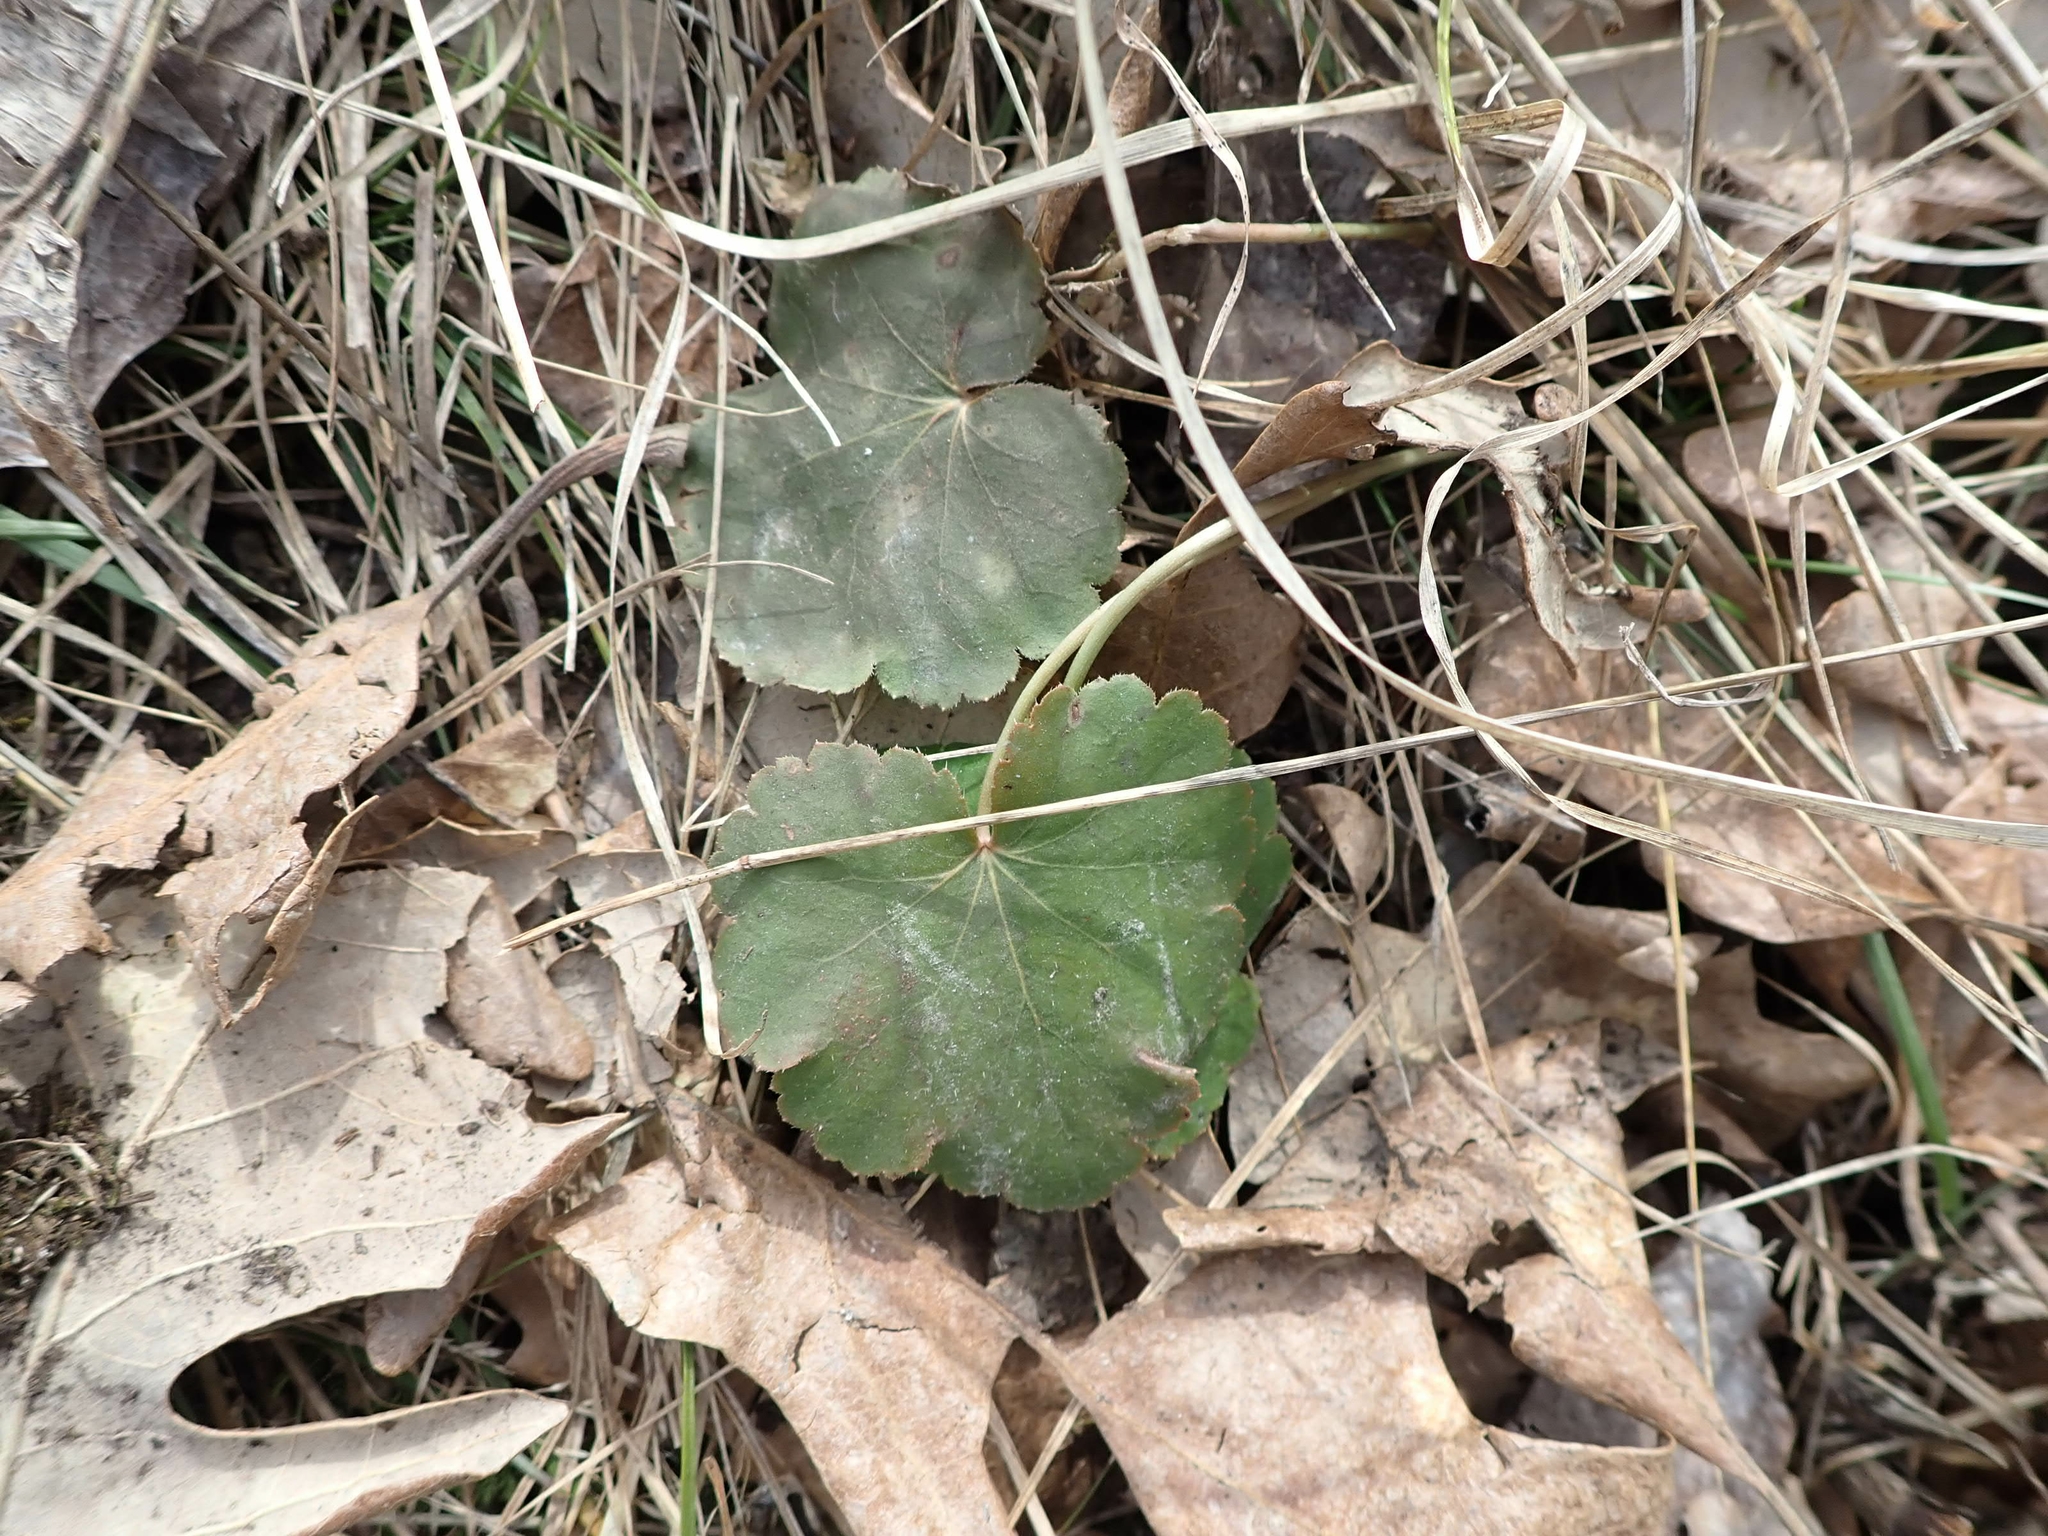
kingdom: Plantae
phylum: Tracheophyta
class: Magnoliopsida
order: Saxifragales
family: Saxifragaceae
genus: Heuchera
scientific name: Heuchera richardsonii
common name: Richardson's alumroot
